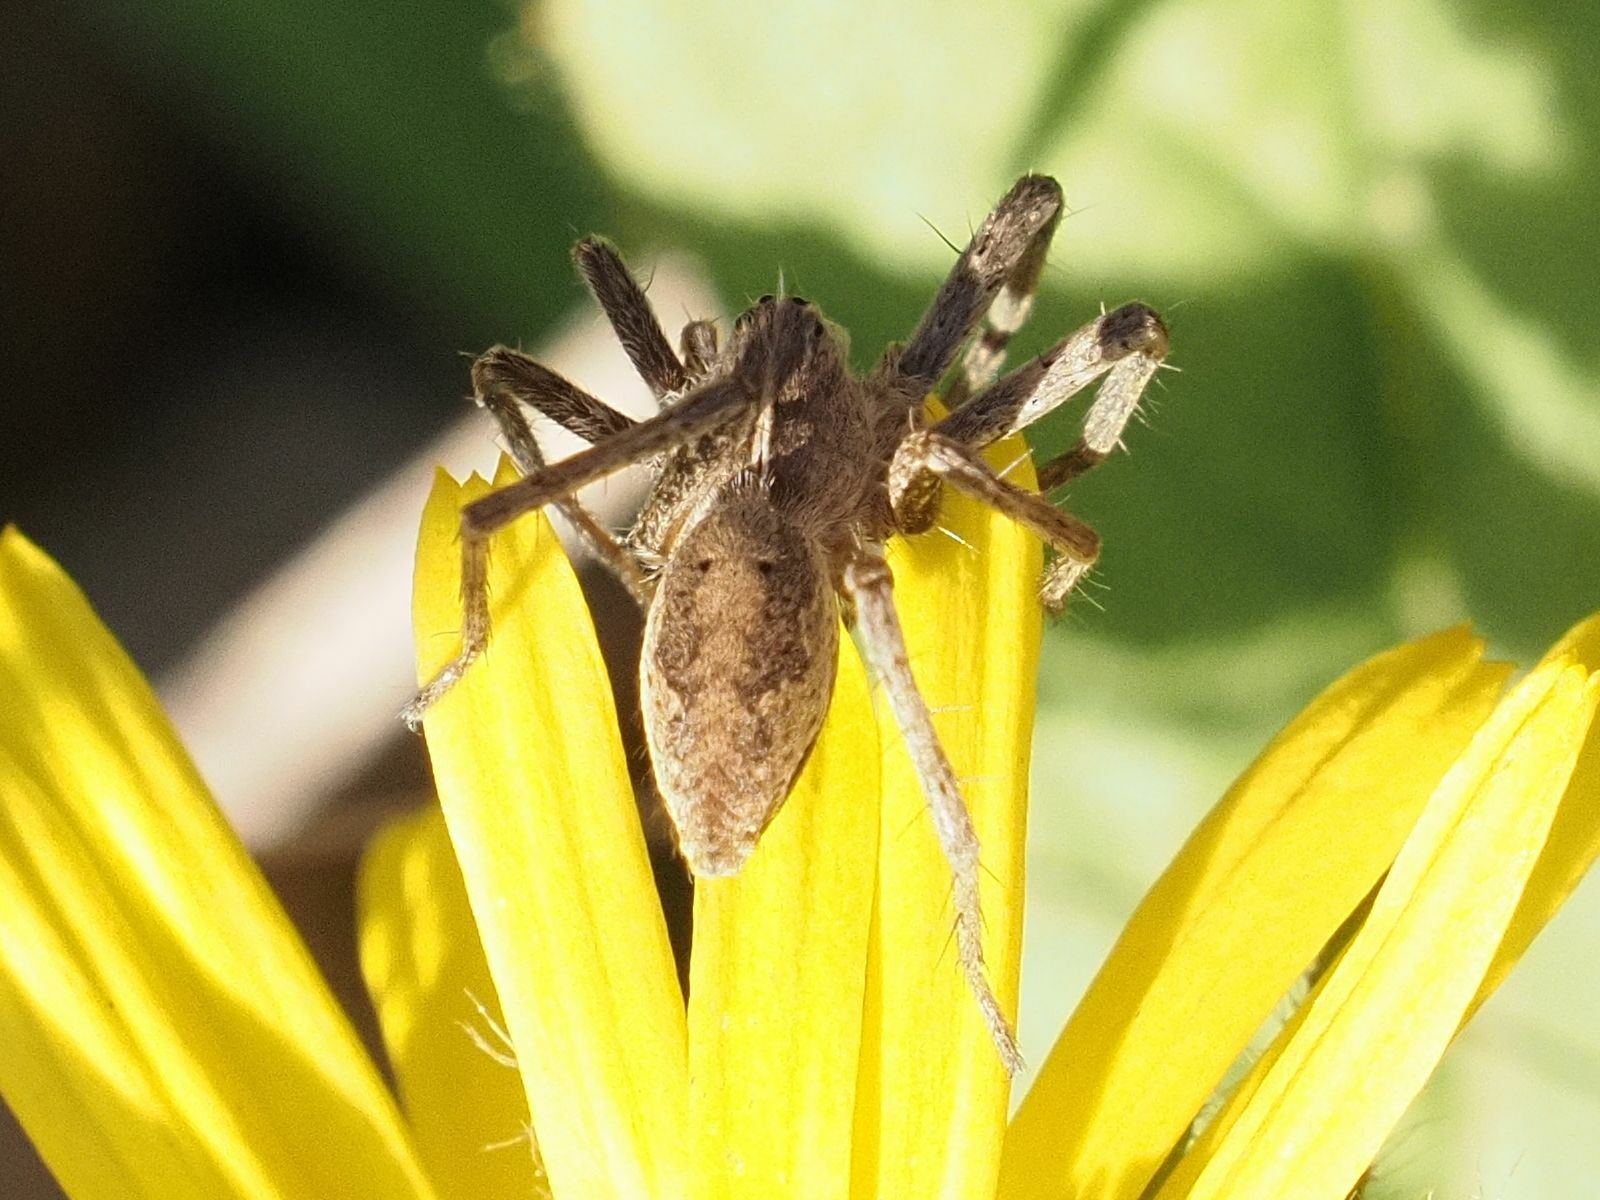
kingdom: Animalia
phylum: Arthropoda
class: Arachnida
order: Araneae
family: Pisauridae
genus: Pisaura
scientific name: Pisaura mirabilis
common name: Tent spider
